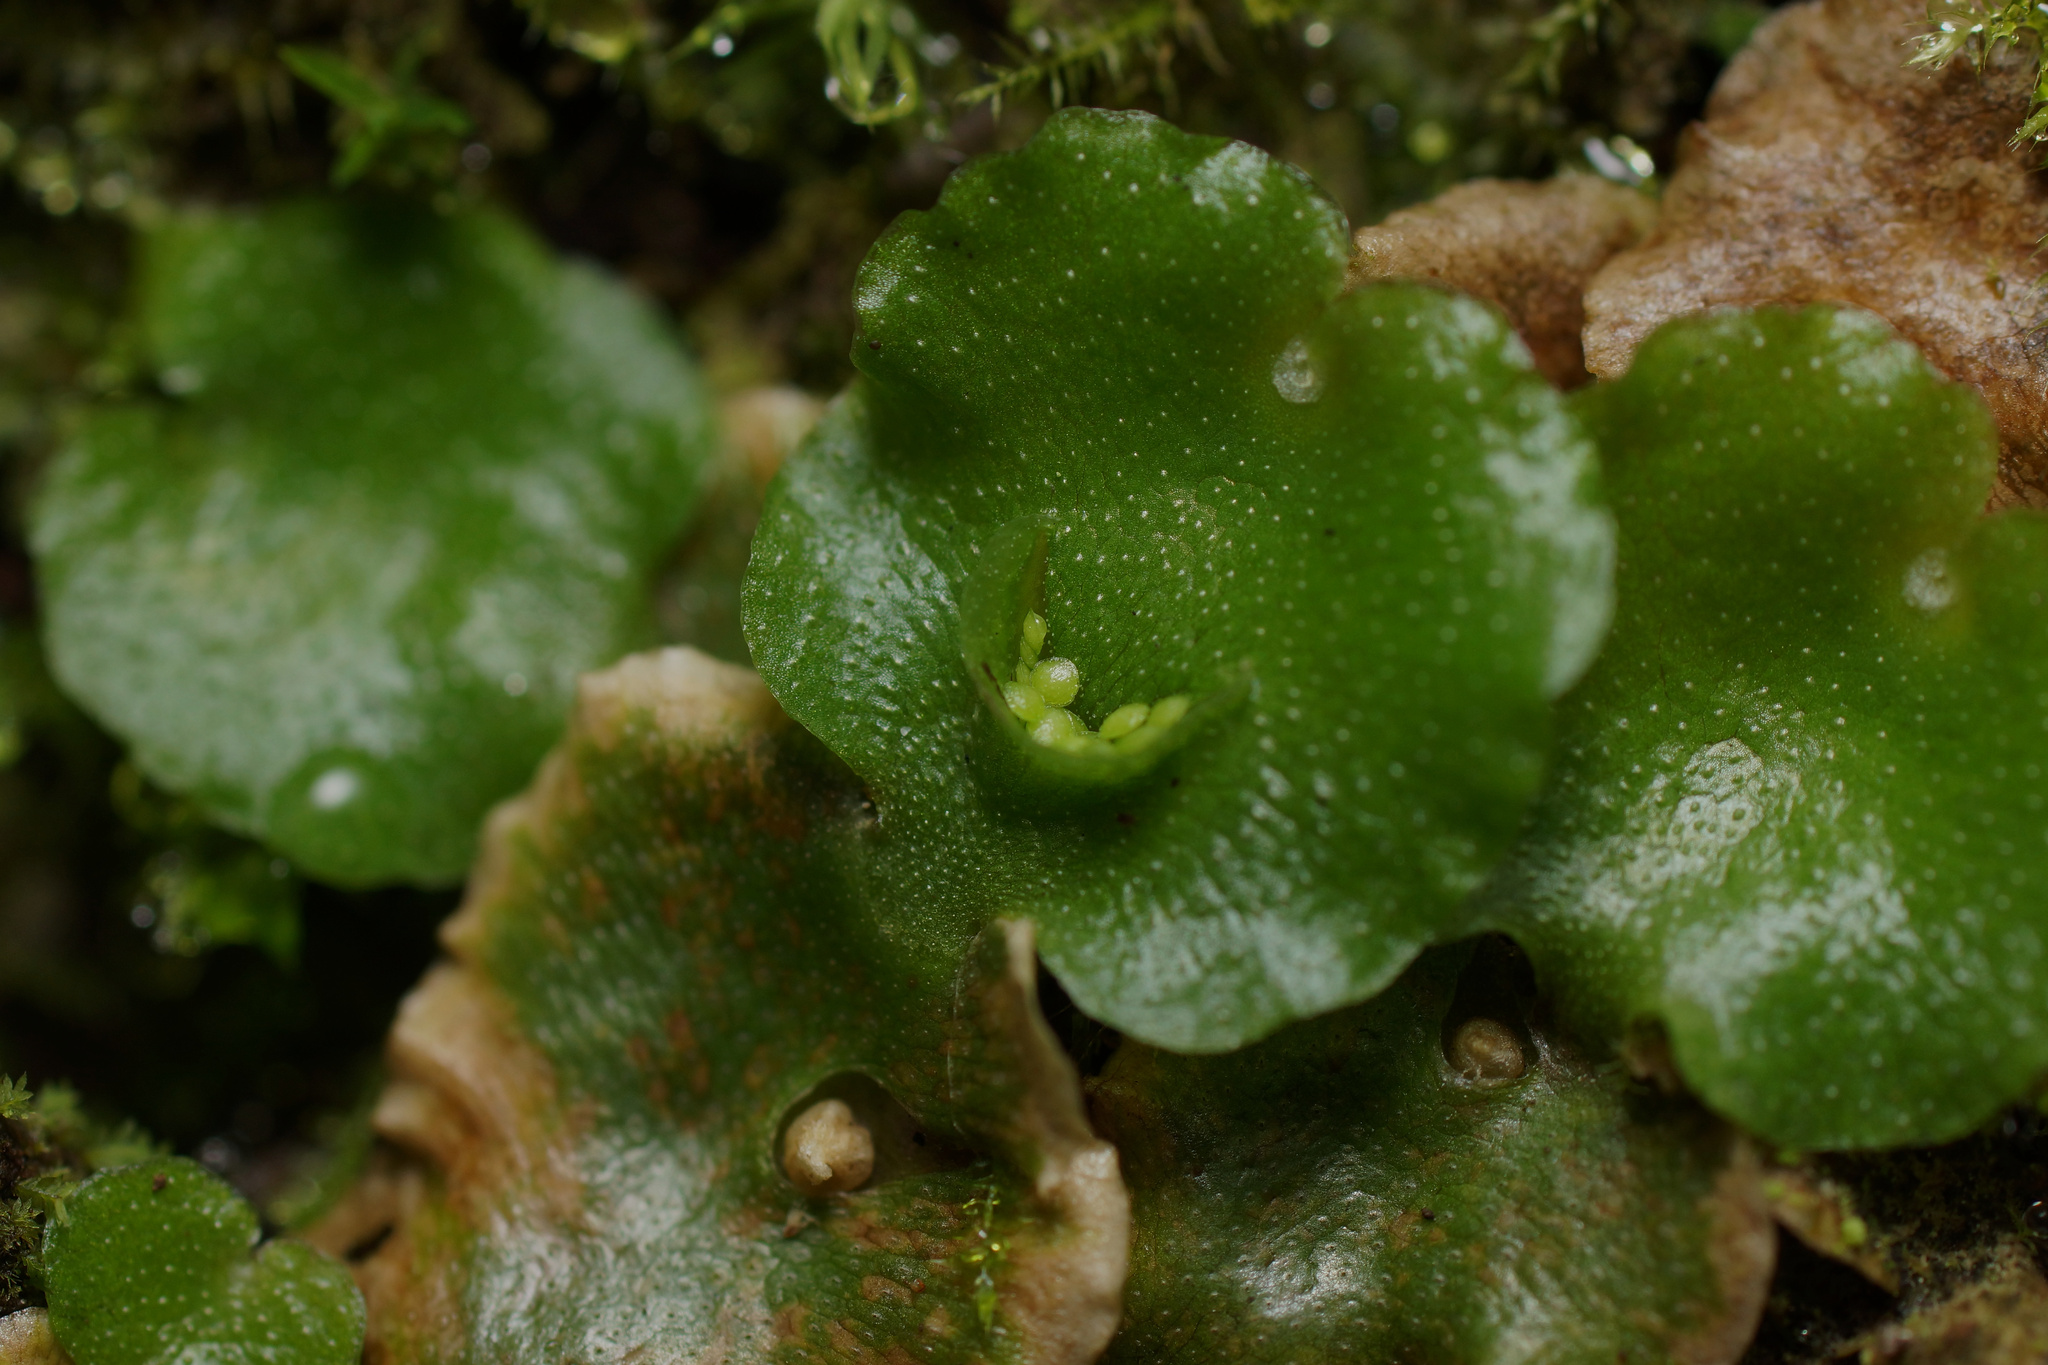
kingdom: Plantae
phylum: Marchantiophyta
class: Marchantiopsida
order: Lunulariales
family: Lunulariaceae
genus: Lunularia
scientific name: Lunularia cruciata
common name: Crescent-cup liverwort
